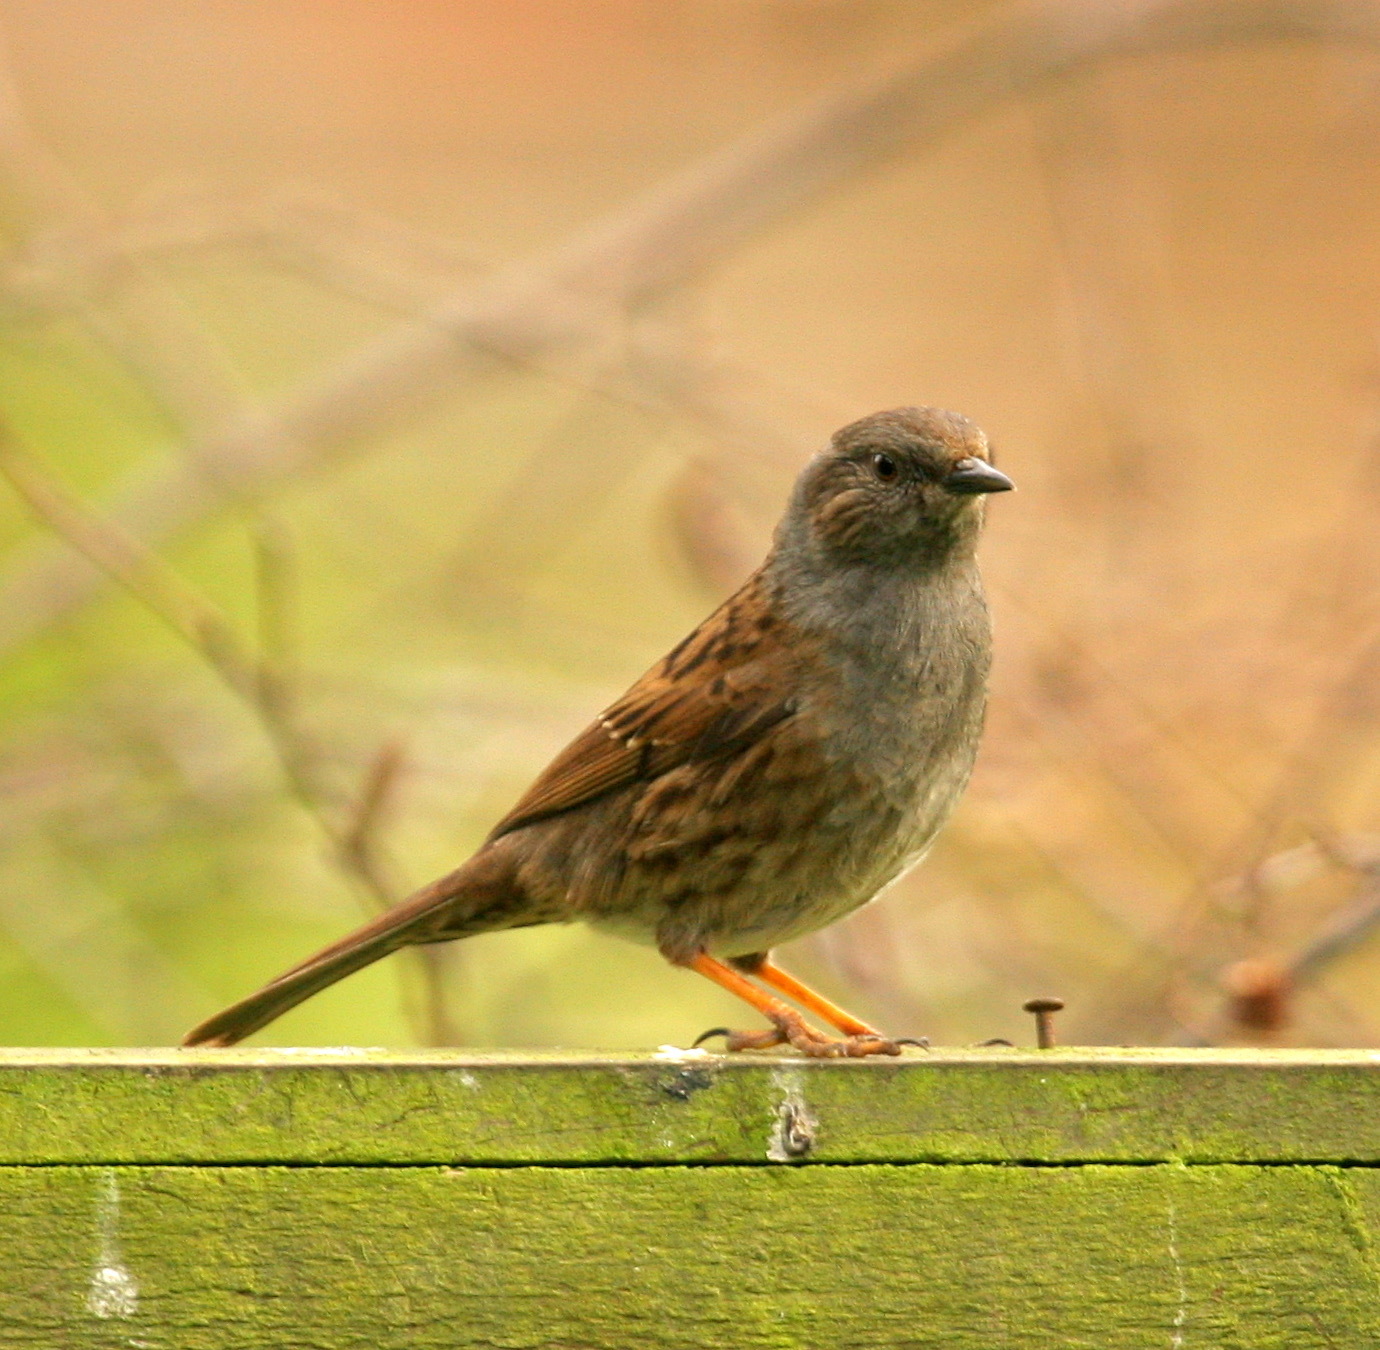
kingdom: Animalia
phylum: Chordata
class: Aves
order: Passeriformes
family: Prunellidae
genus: Prunella
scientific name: Prunella modularis
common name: Dunnock
